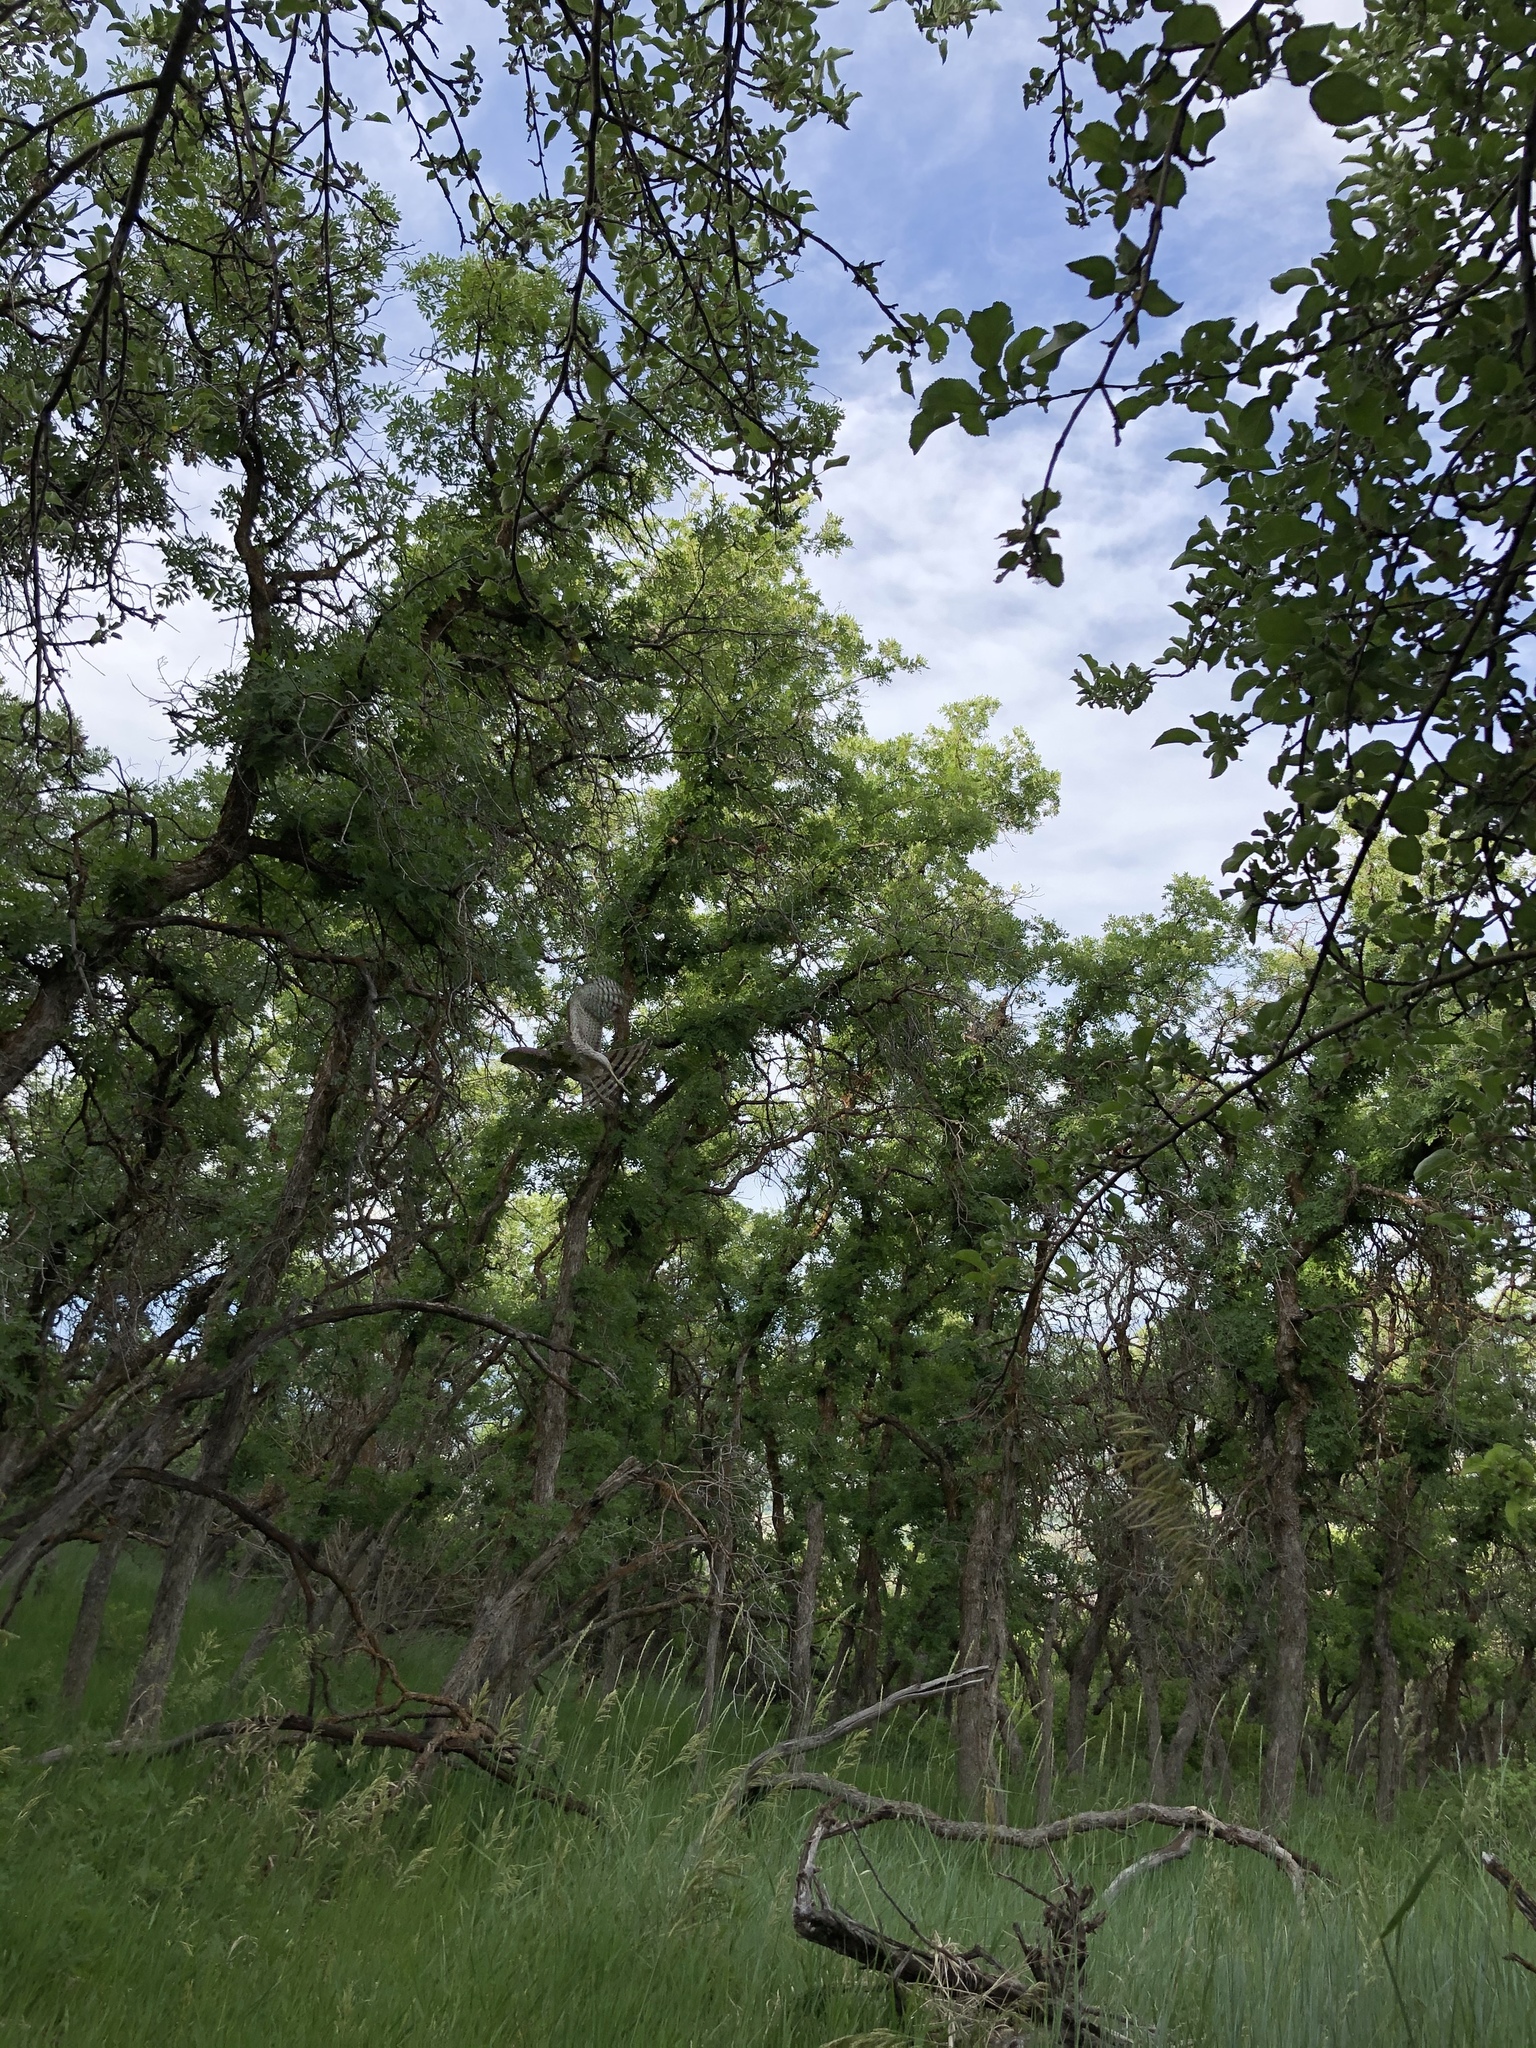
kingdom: Animalia
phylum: Chordata
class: Aves
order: Accipitriformes
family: Accipitridae
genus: Accipiter
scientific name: Accipiter cooperii
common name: Cooper's hawk
